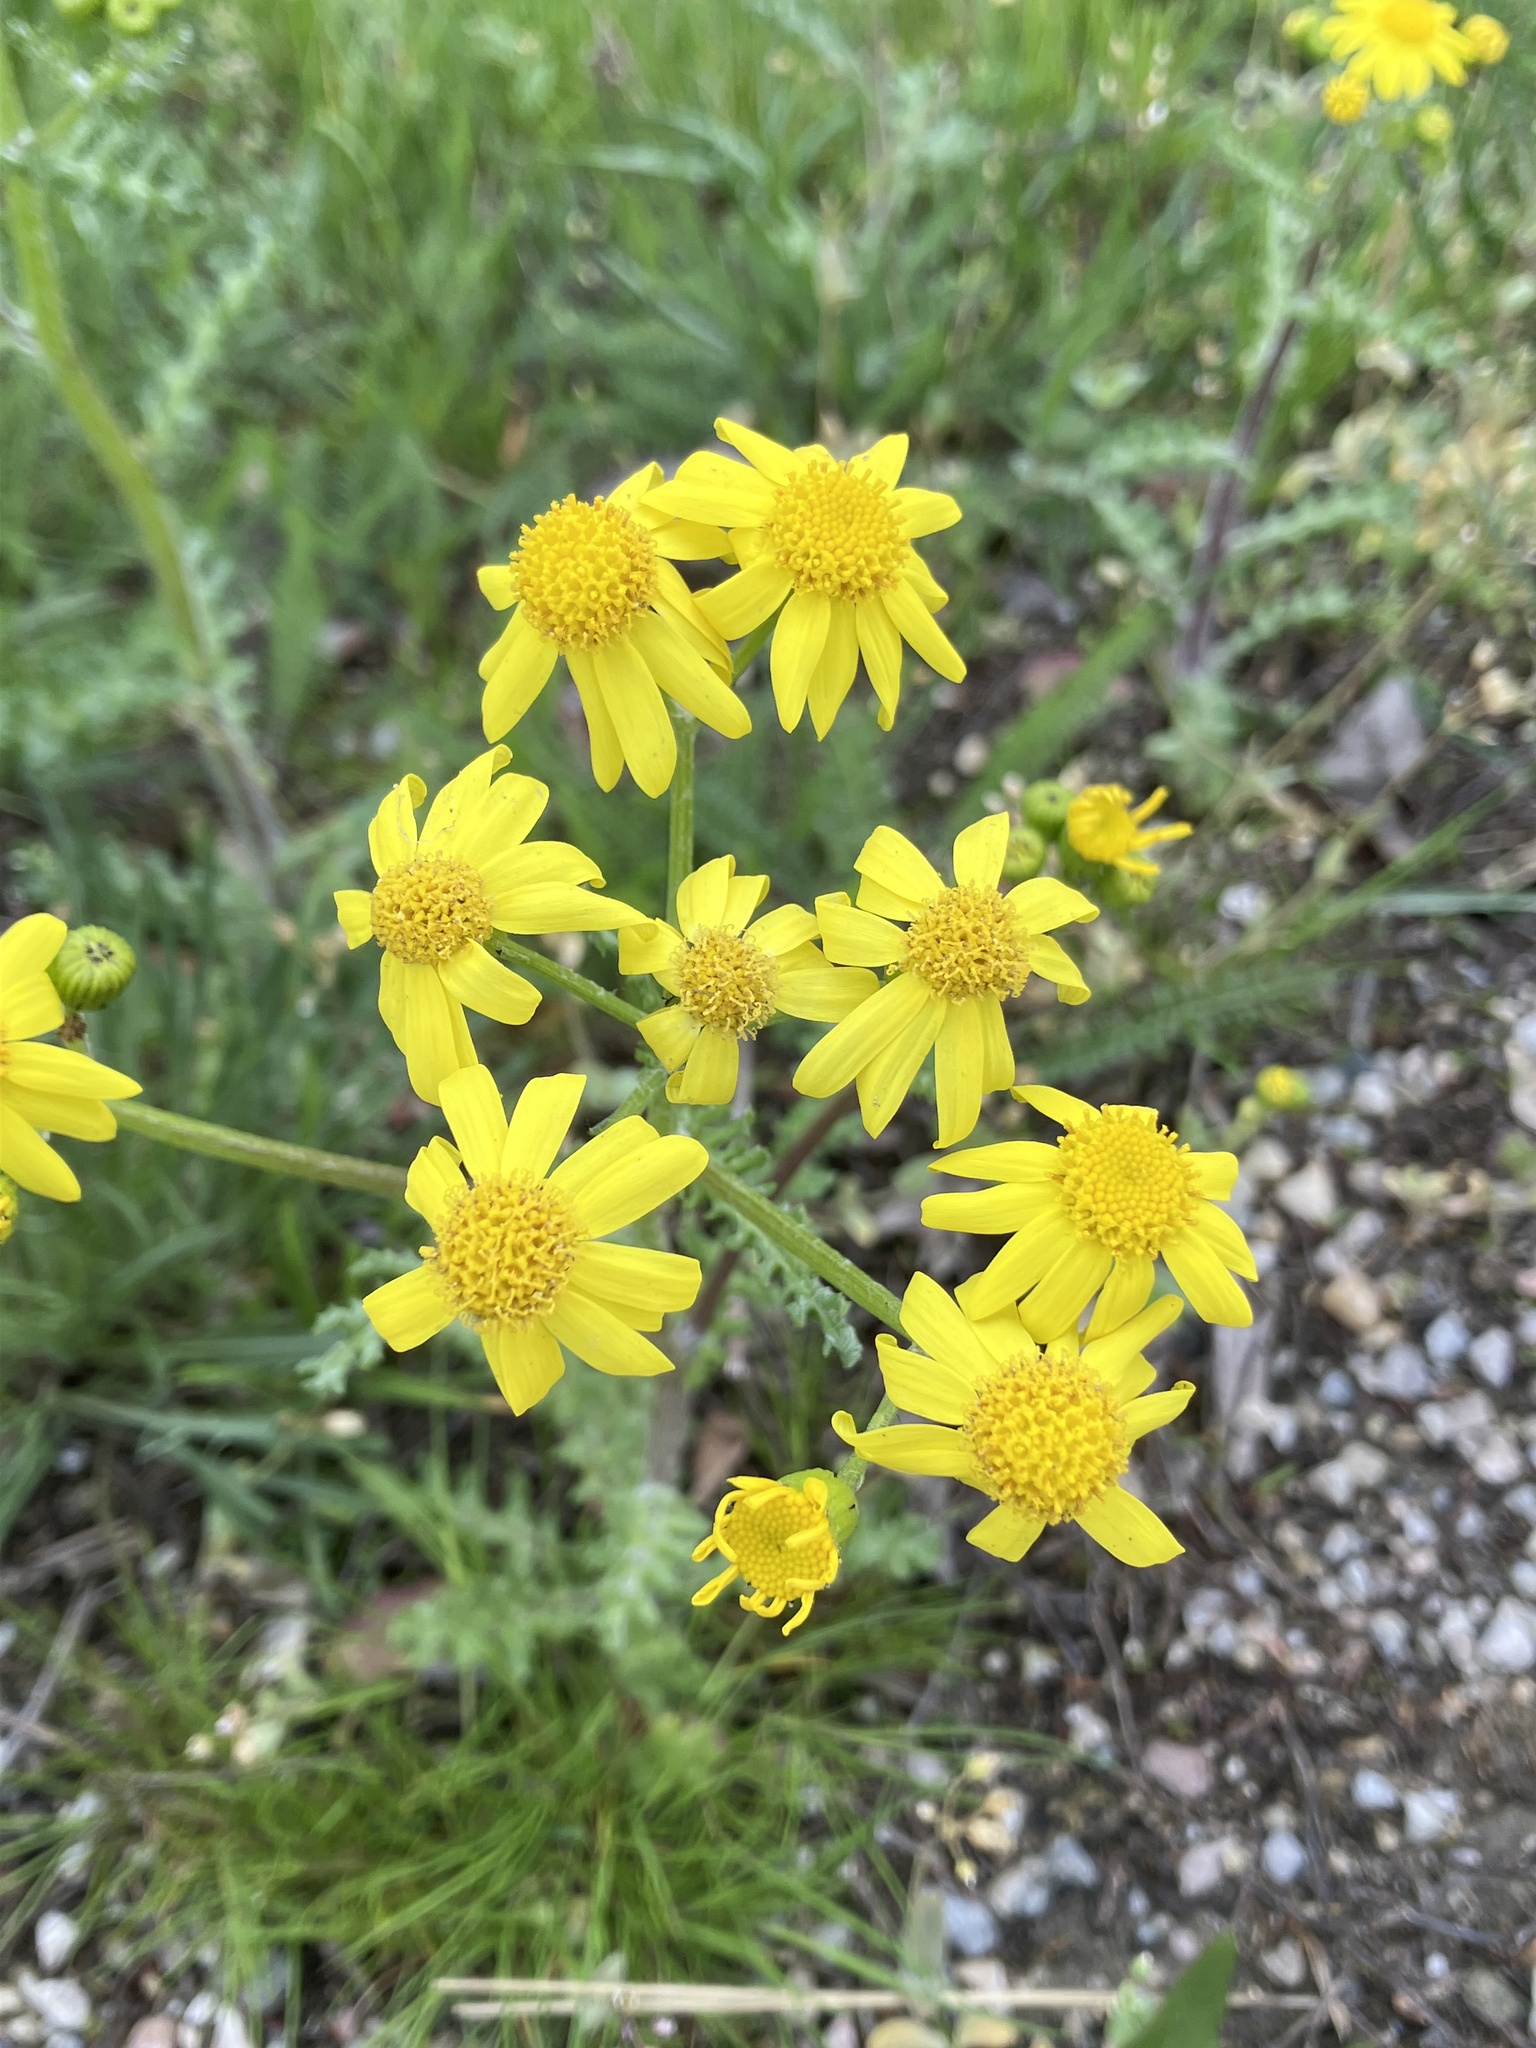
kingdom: Plantae
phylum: Tracheophyta
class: Magnoliopsida
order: Asterales
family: Asteraceae
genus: Senecio
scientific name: Senecio vernalis
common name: Eastern groundsel
